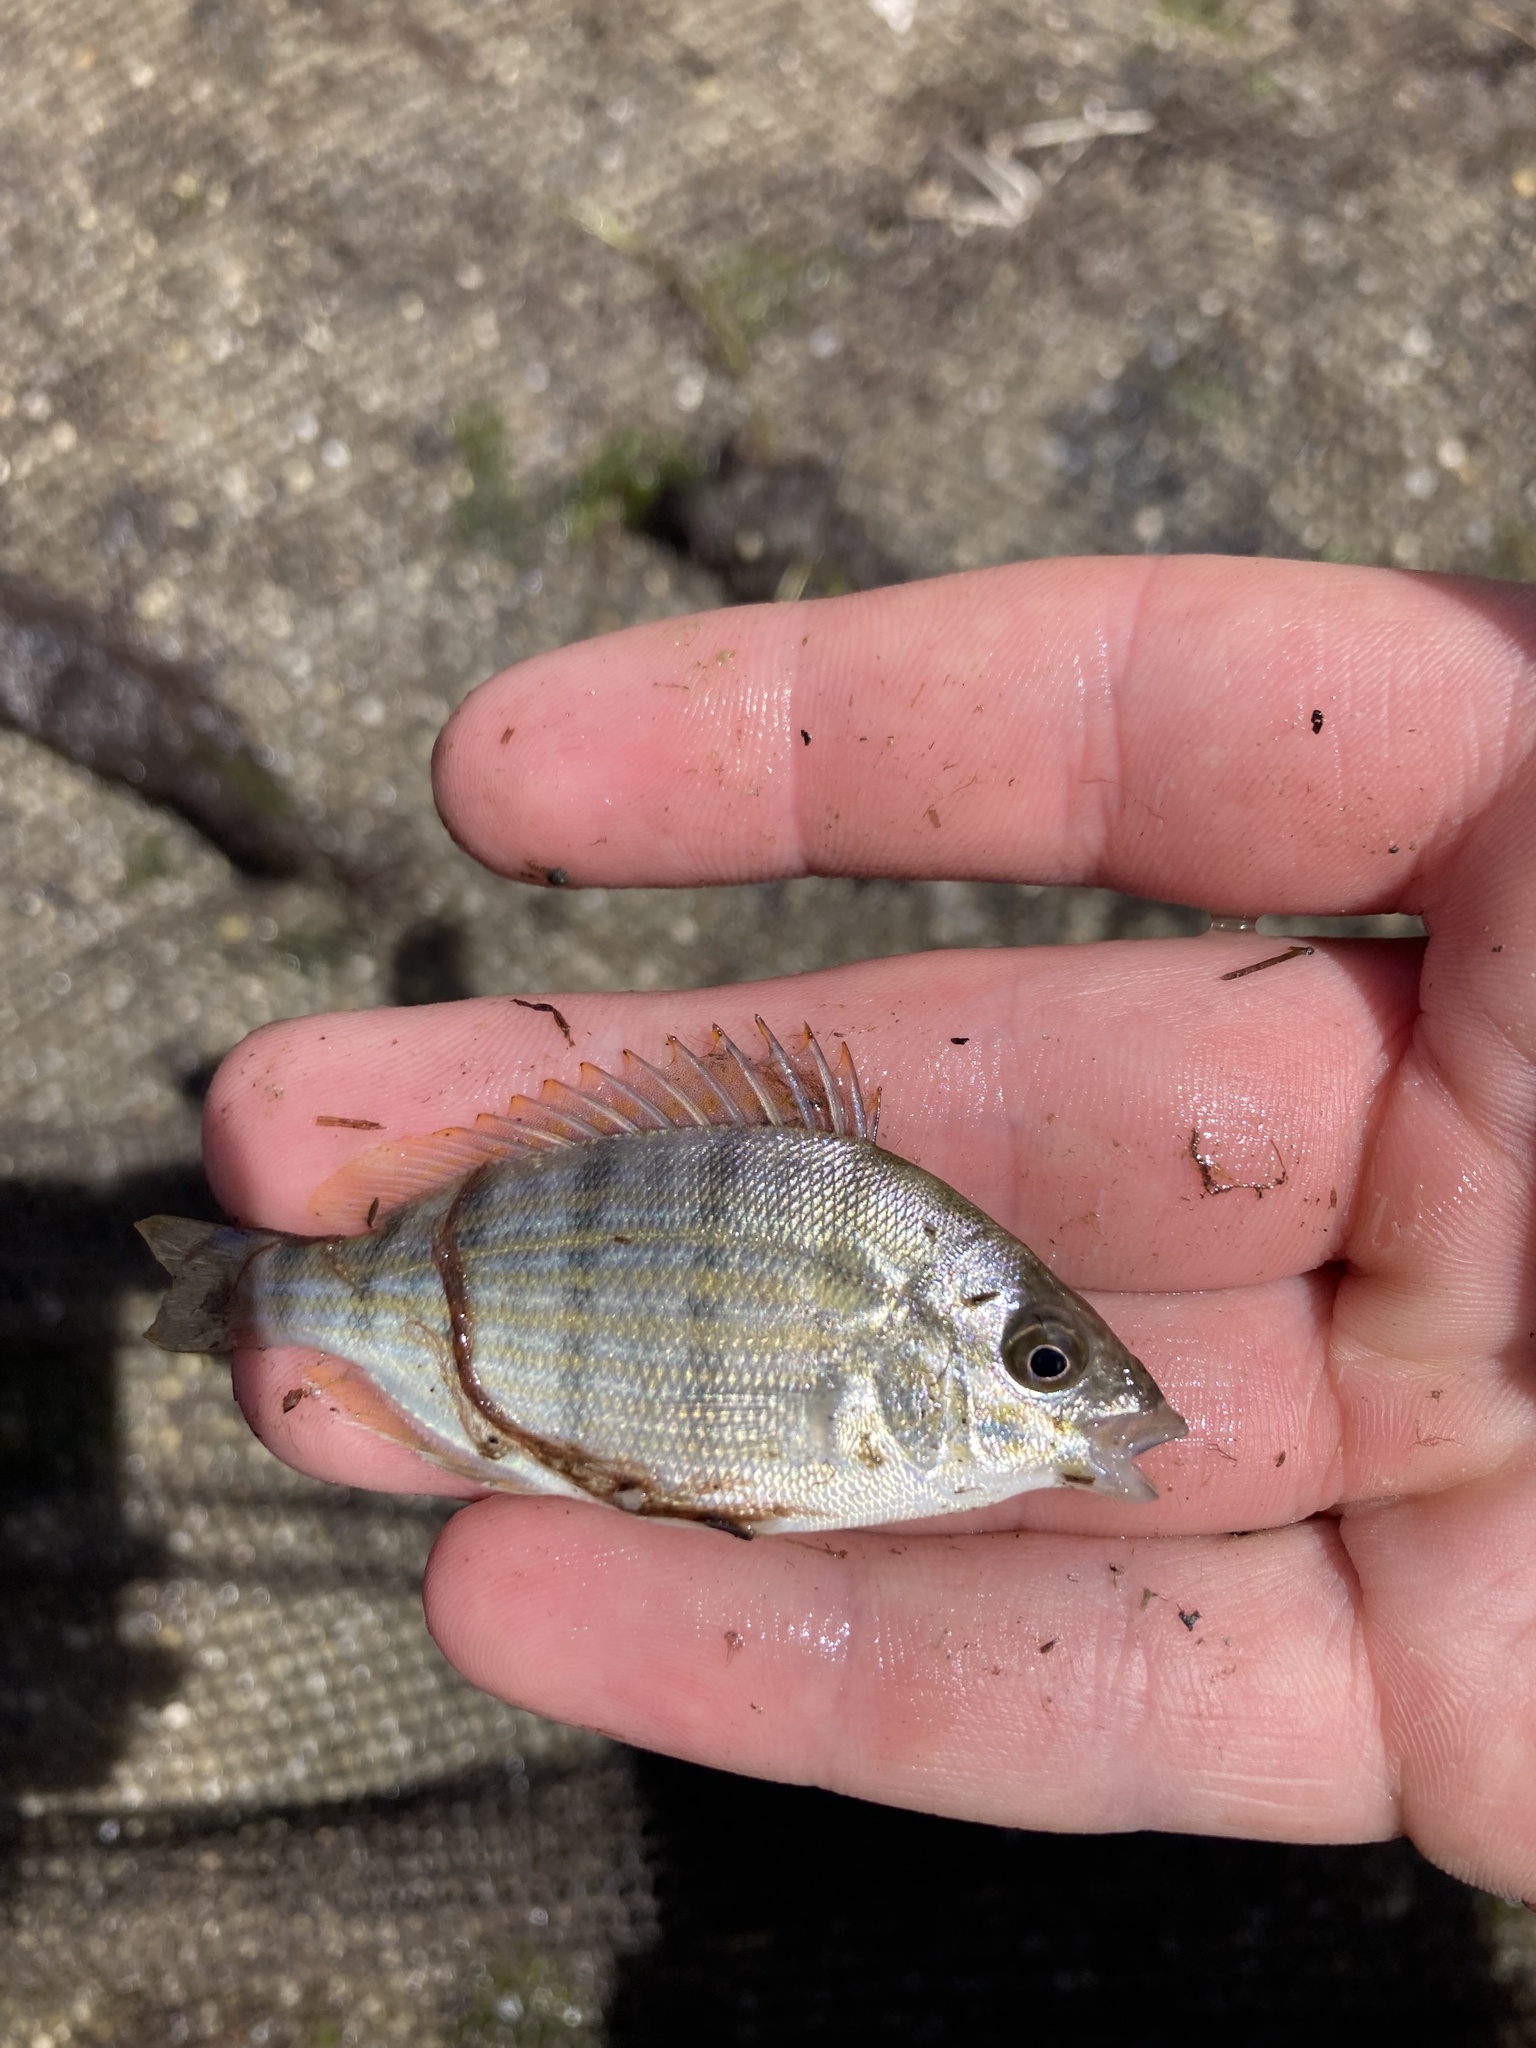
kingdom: Animalia
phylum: Chordata
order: Perciformes
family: Sparidae
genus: Lagodon
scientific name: Lagodon rhomboides
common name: Pinfish
